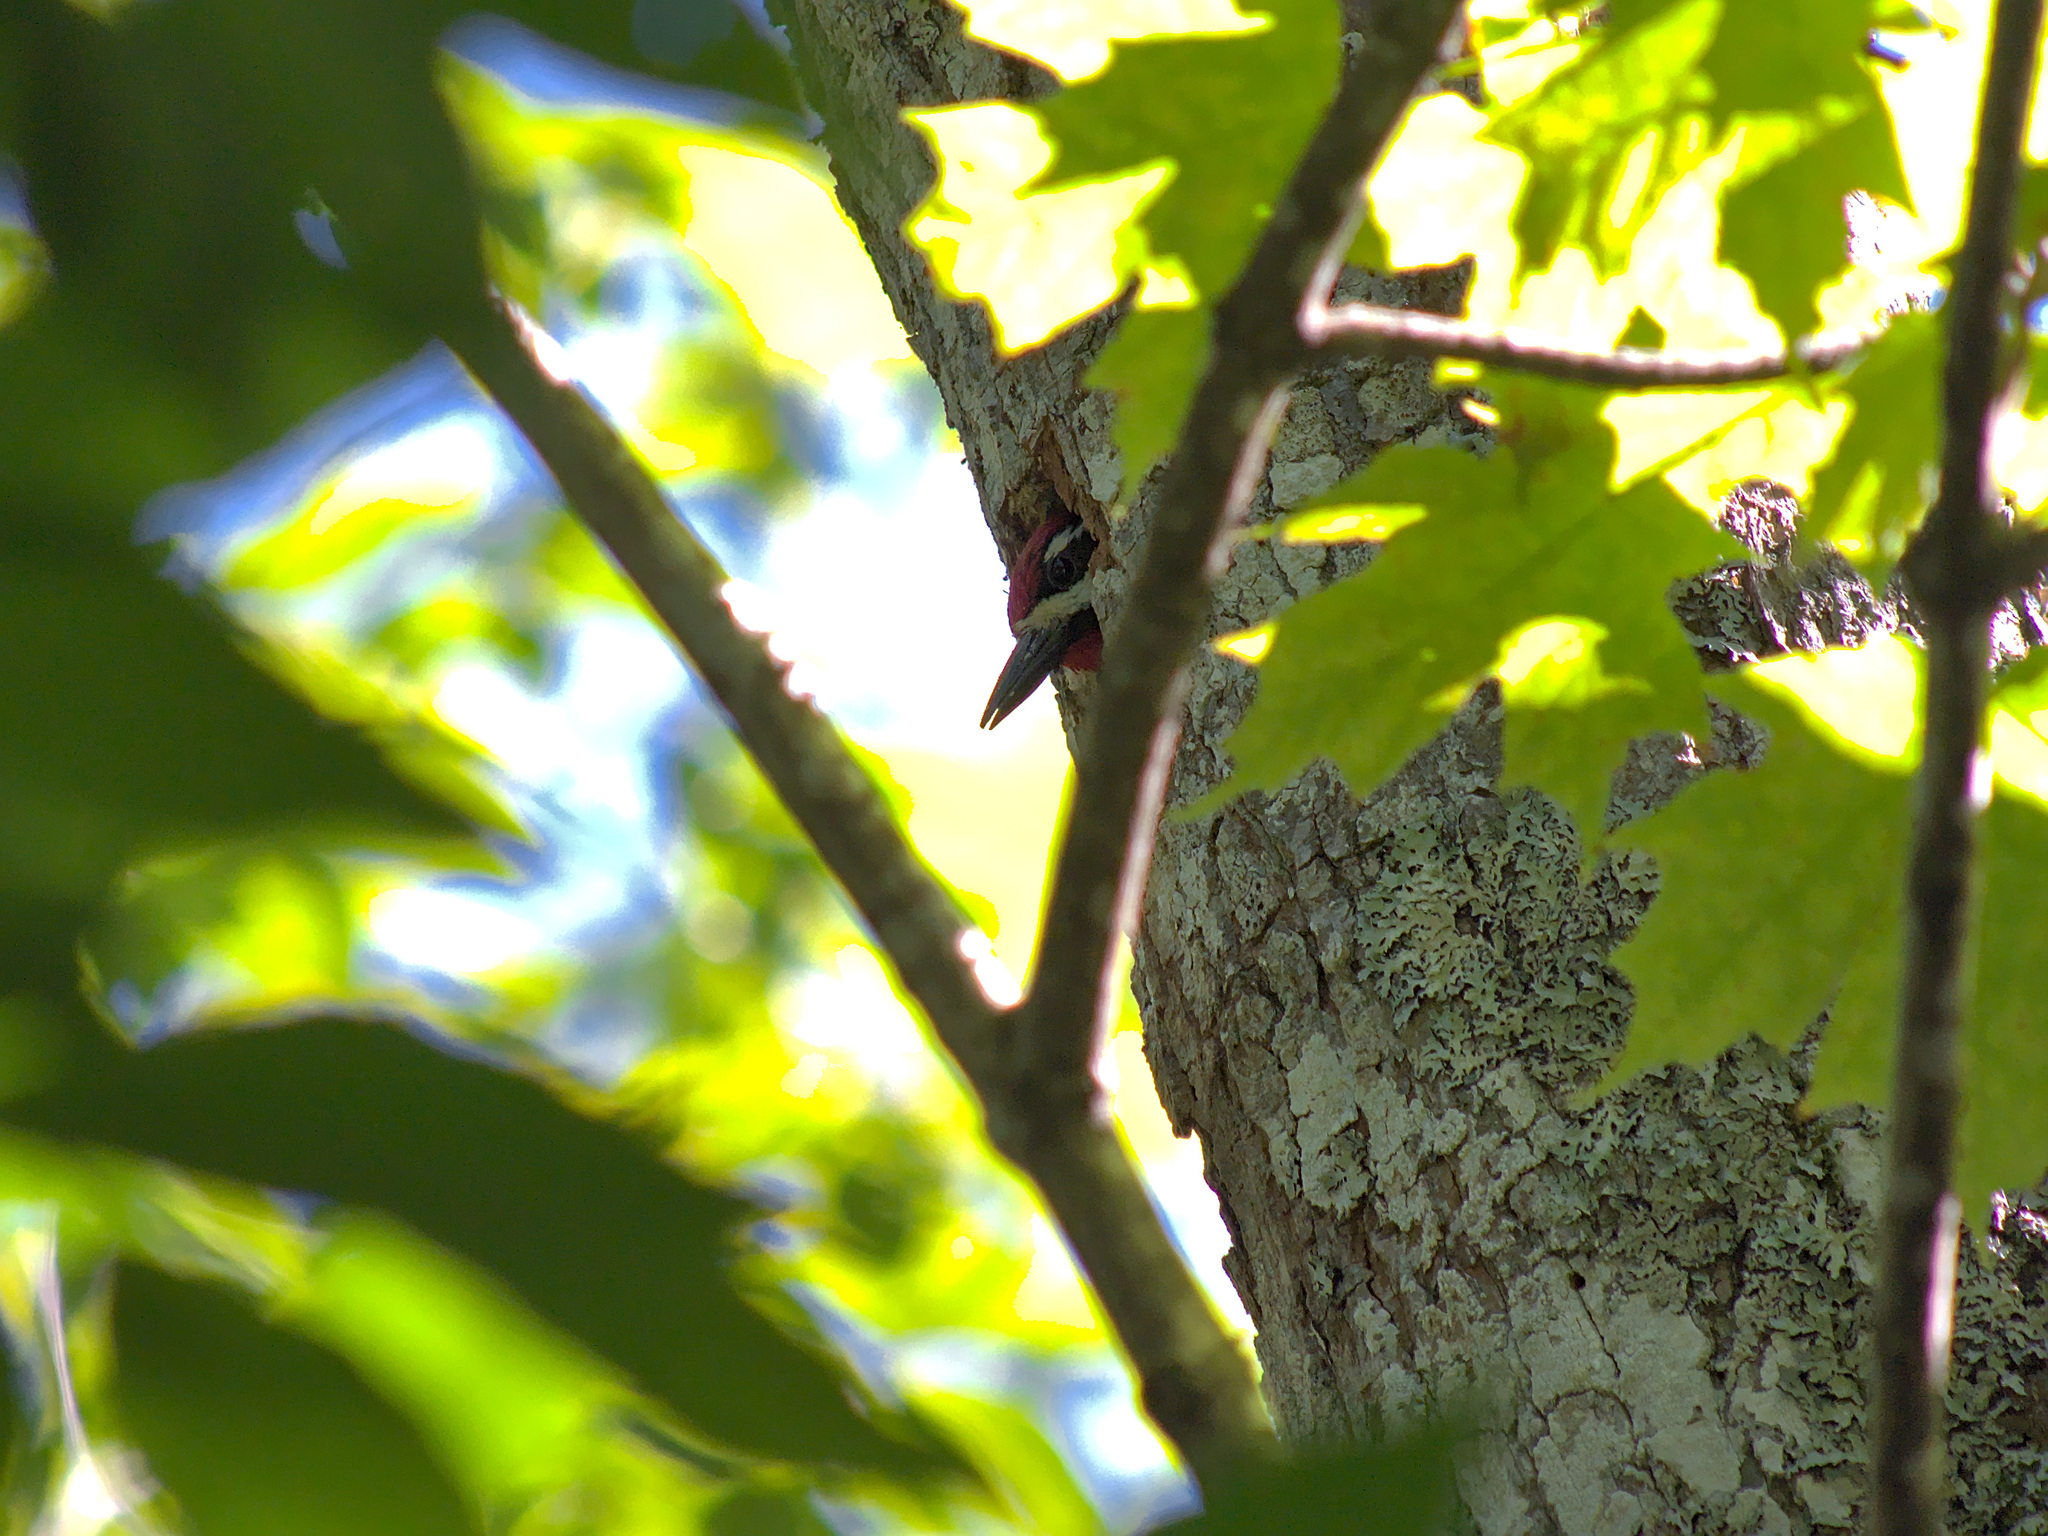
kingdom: Animalia
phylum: Chordata
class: Aves
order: Piciformes
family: Picidae
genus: Sphyrapicus
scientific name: Sphyrapicus varius
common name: Yellow-bellied sapsucker
